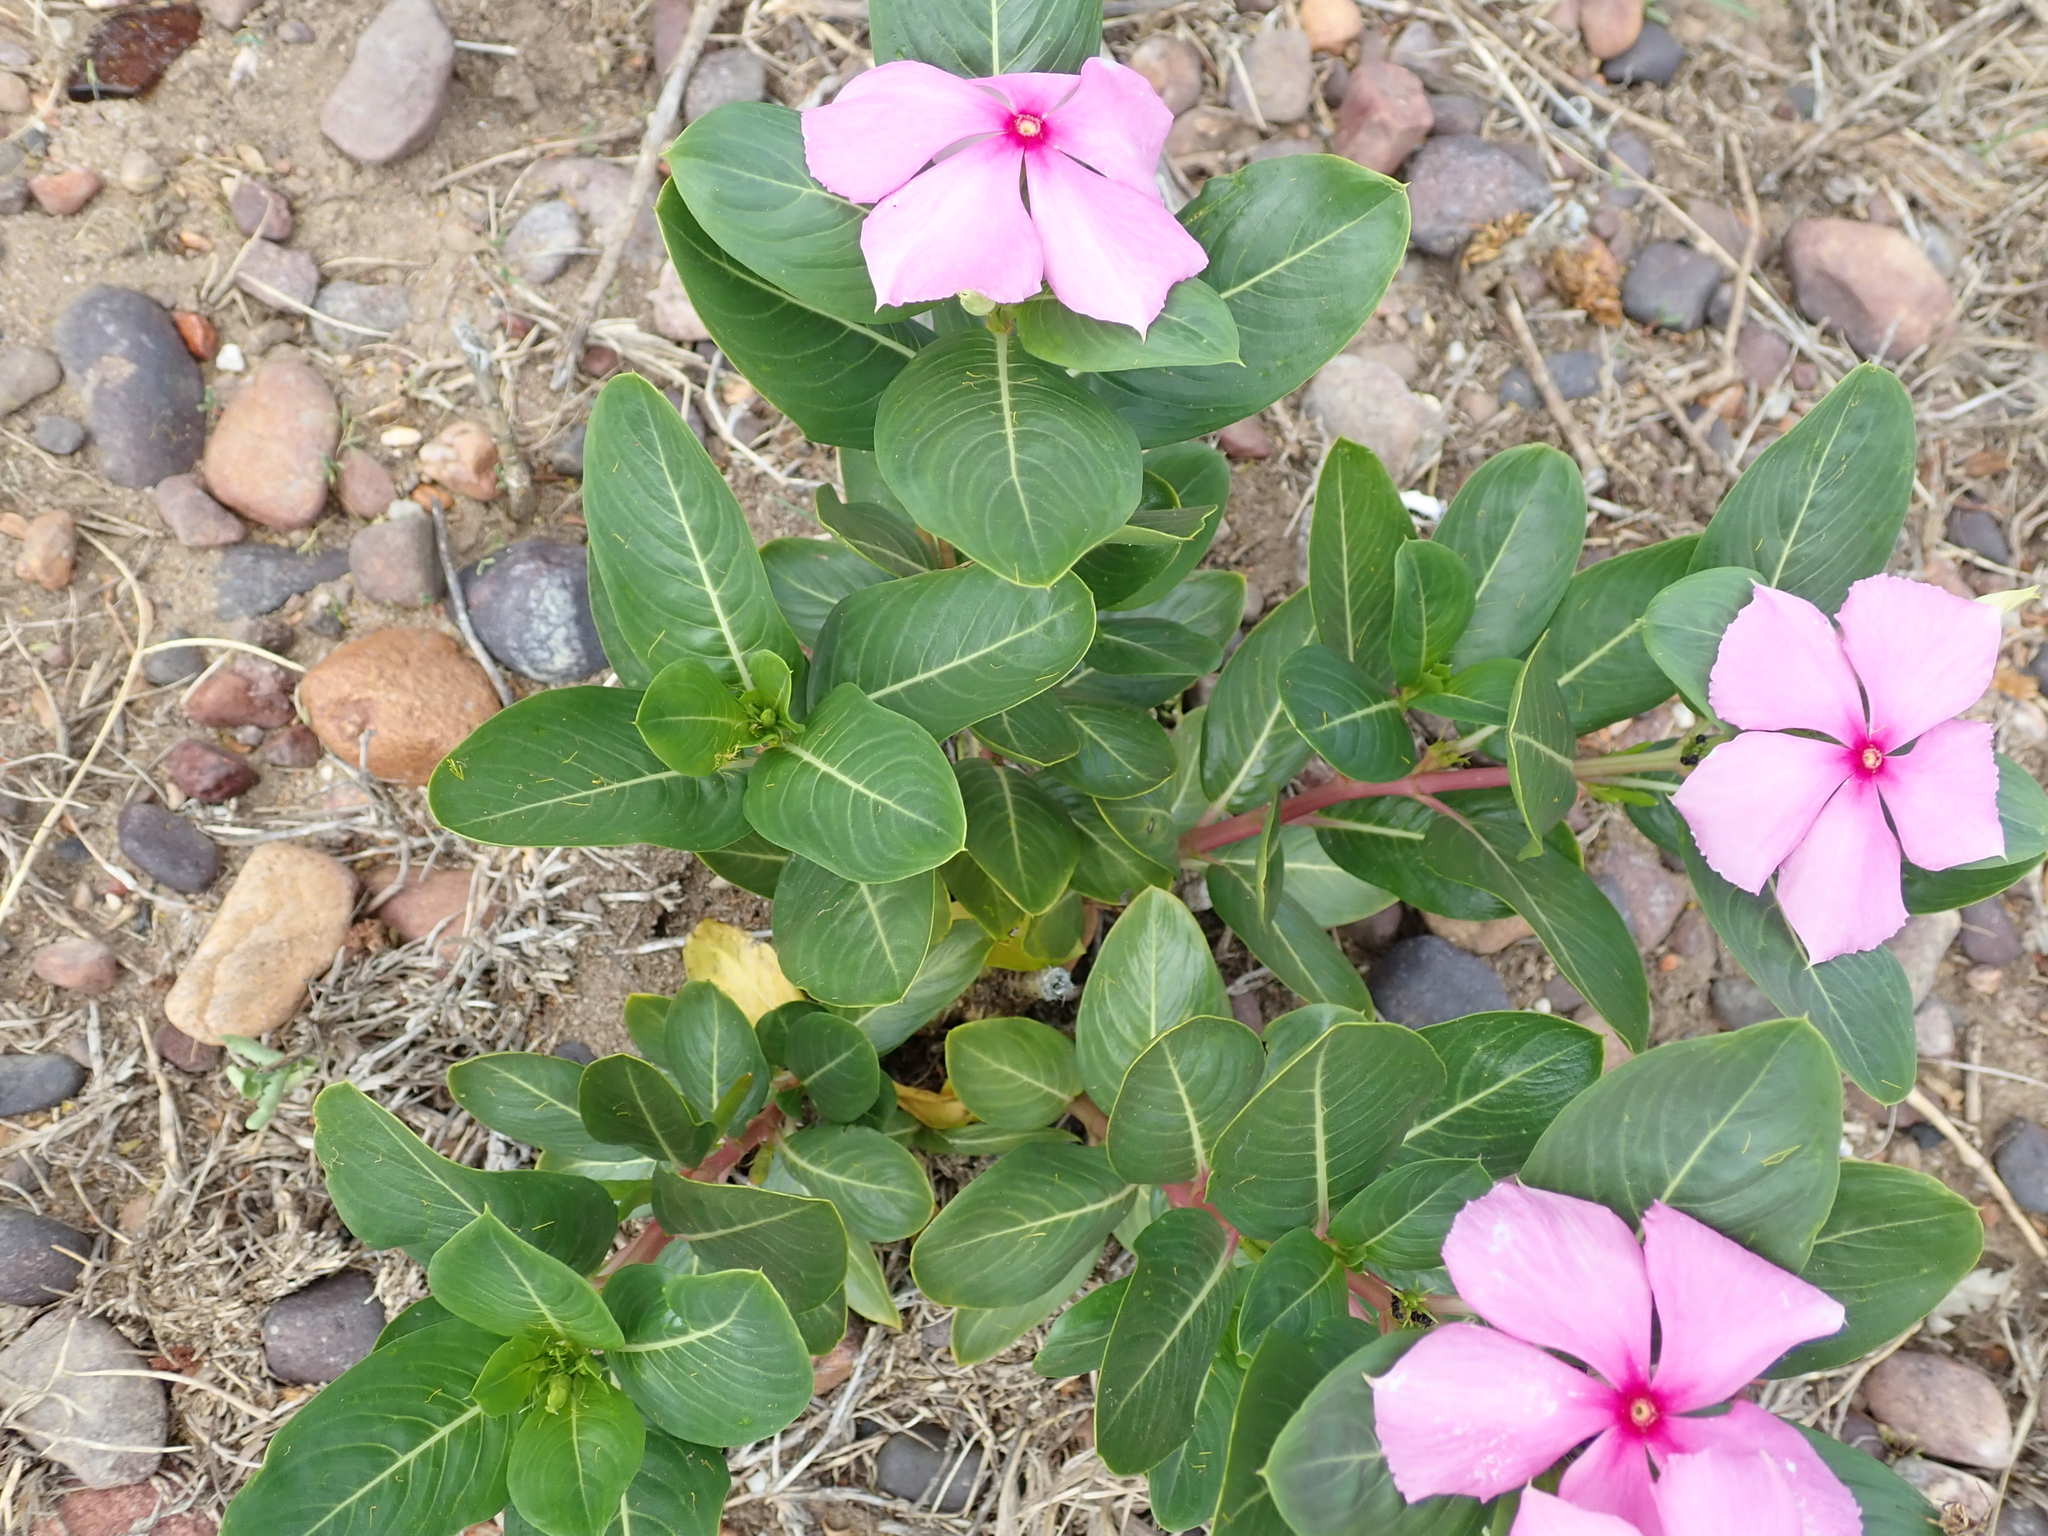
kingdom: Plantae
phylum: Tracheophyta
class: Magnoliopsida
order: Gentianales
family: Apocynaceae
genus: Catharanthus
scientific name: Catharanthus roseus
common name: Madagascar periwinkle
